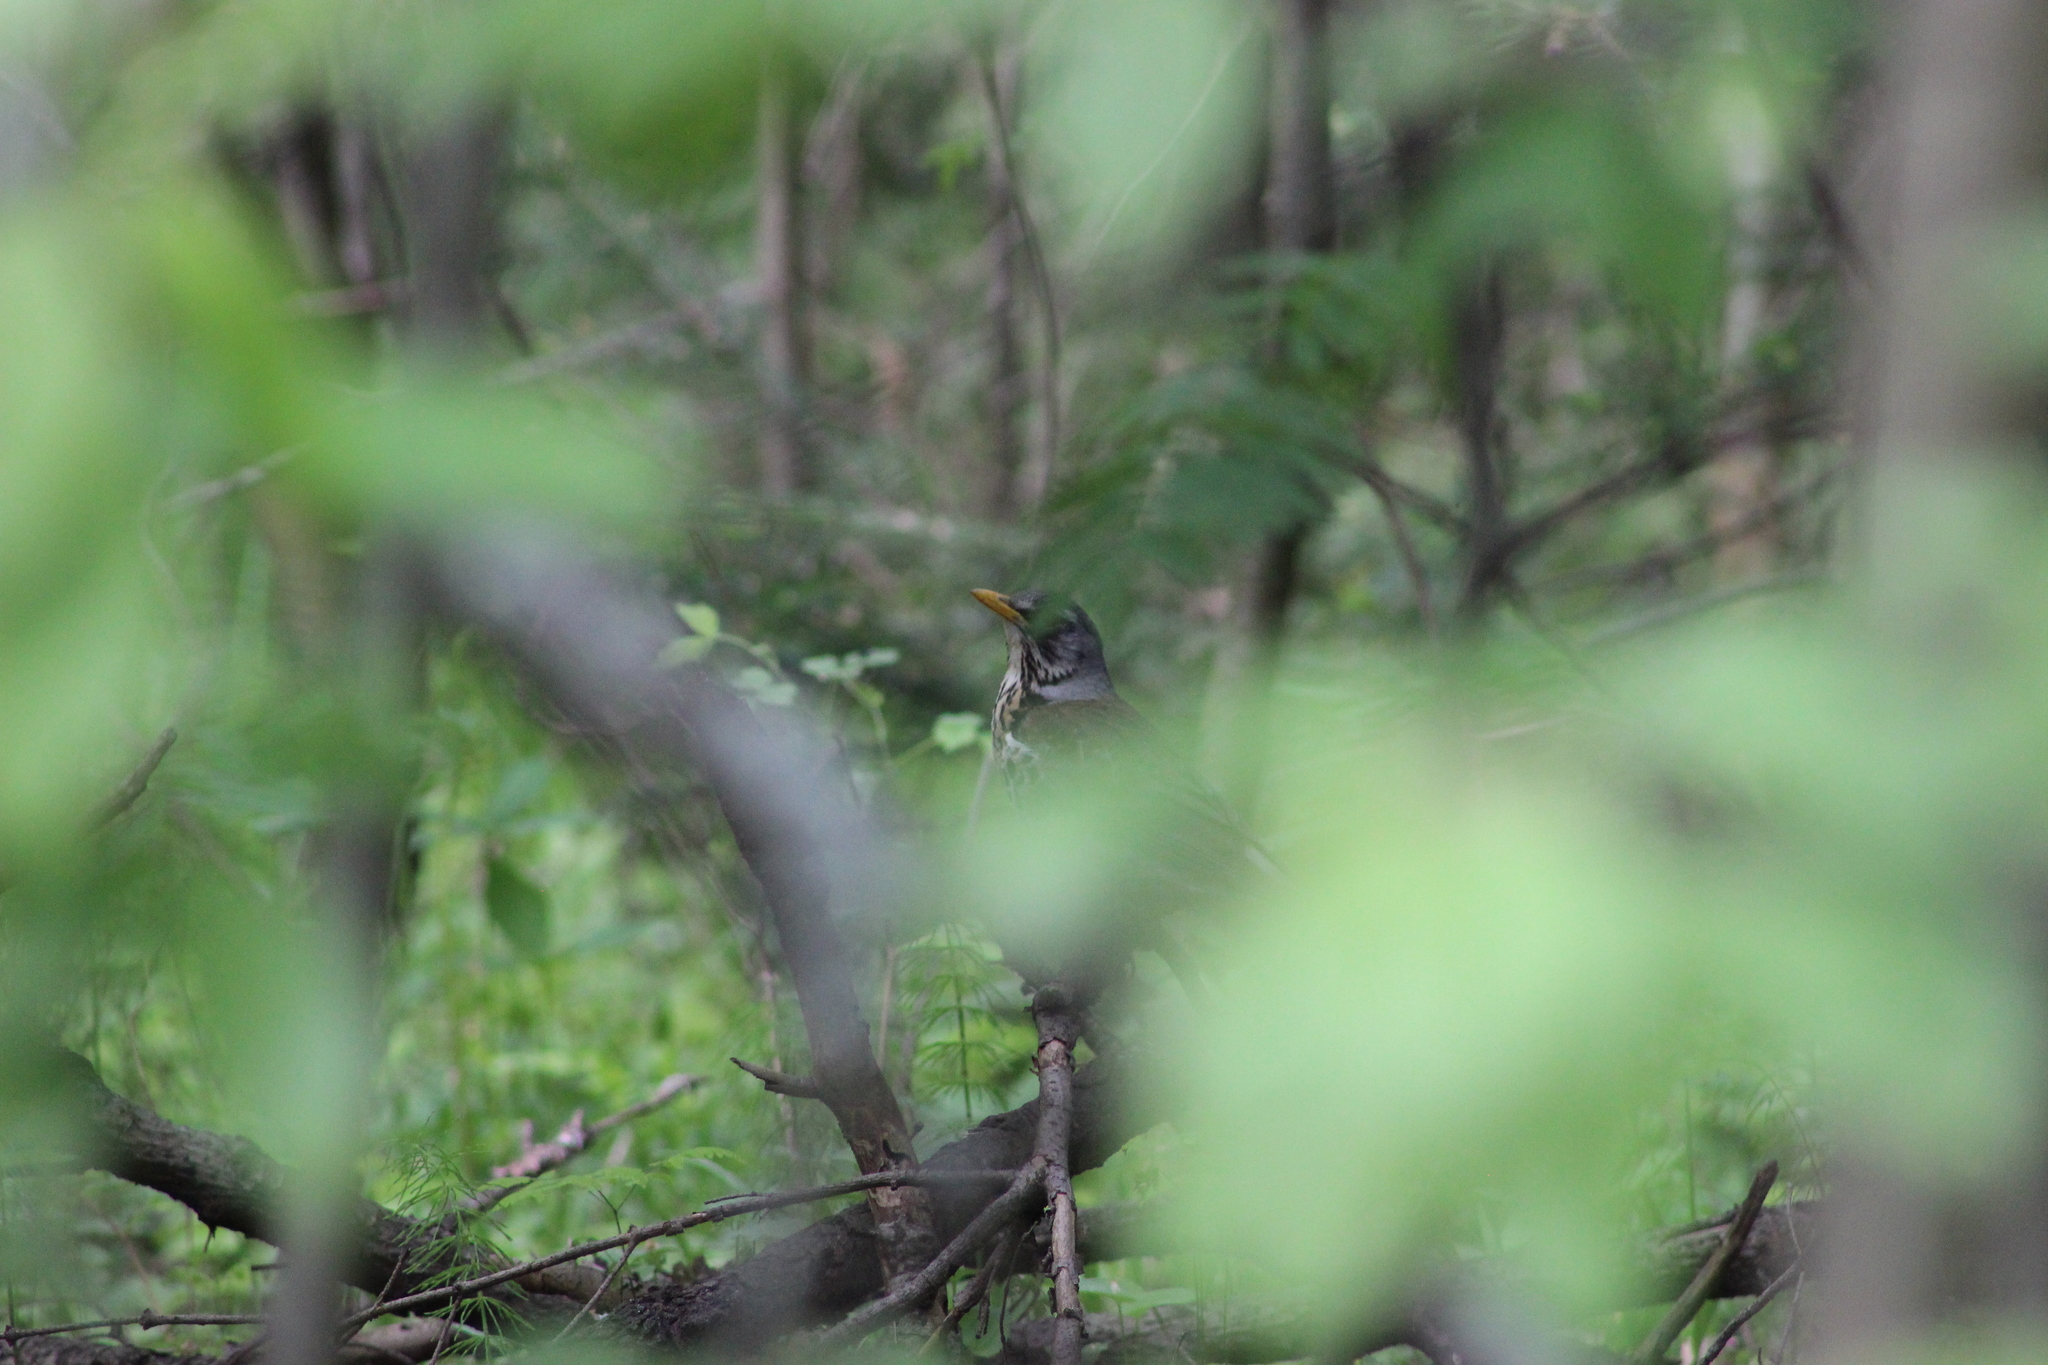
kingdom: Animalia
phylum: Chordata
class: Aves
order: Passeriformes
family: Turdidae
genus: Turdus
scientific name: Turdus pilaris
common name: Fieldfare
